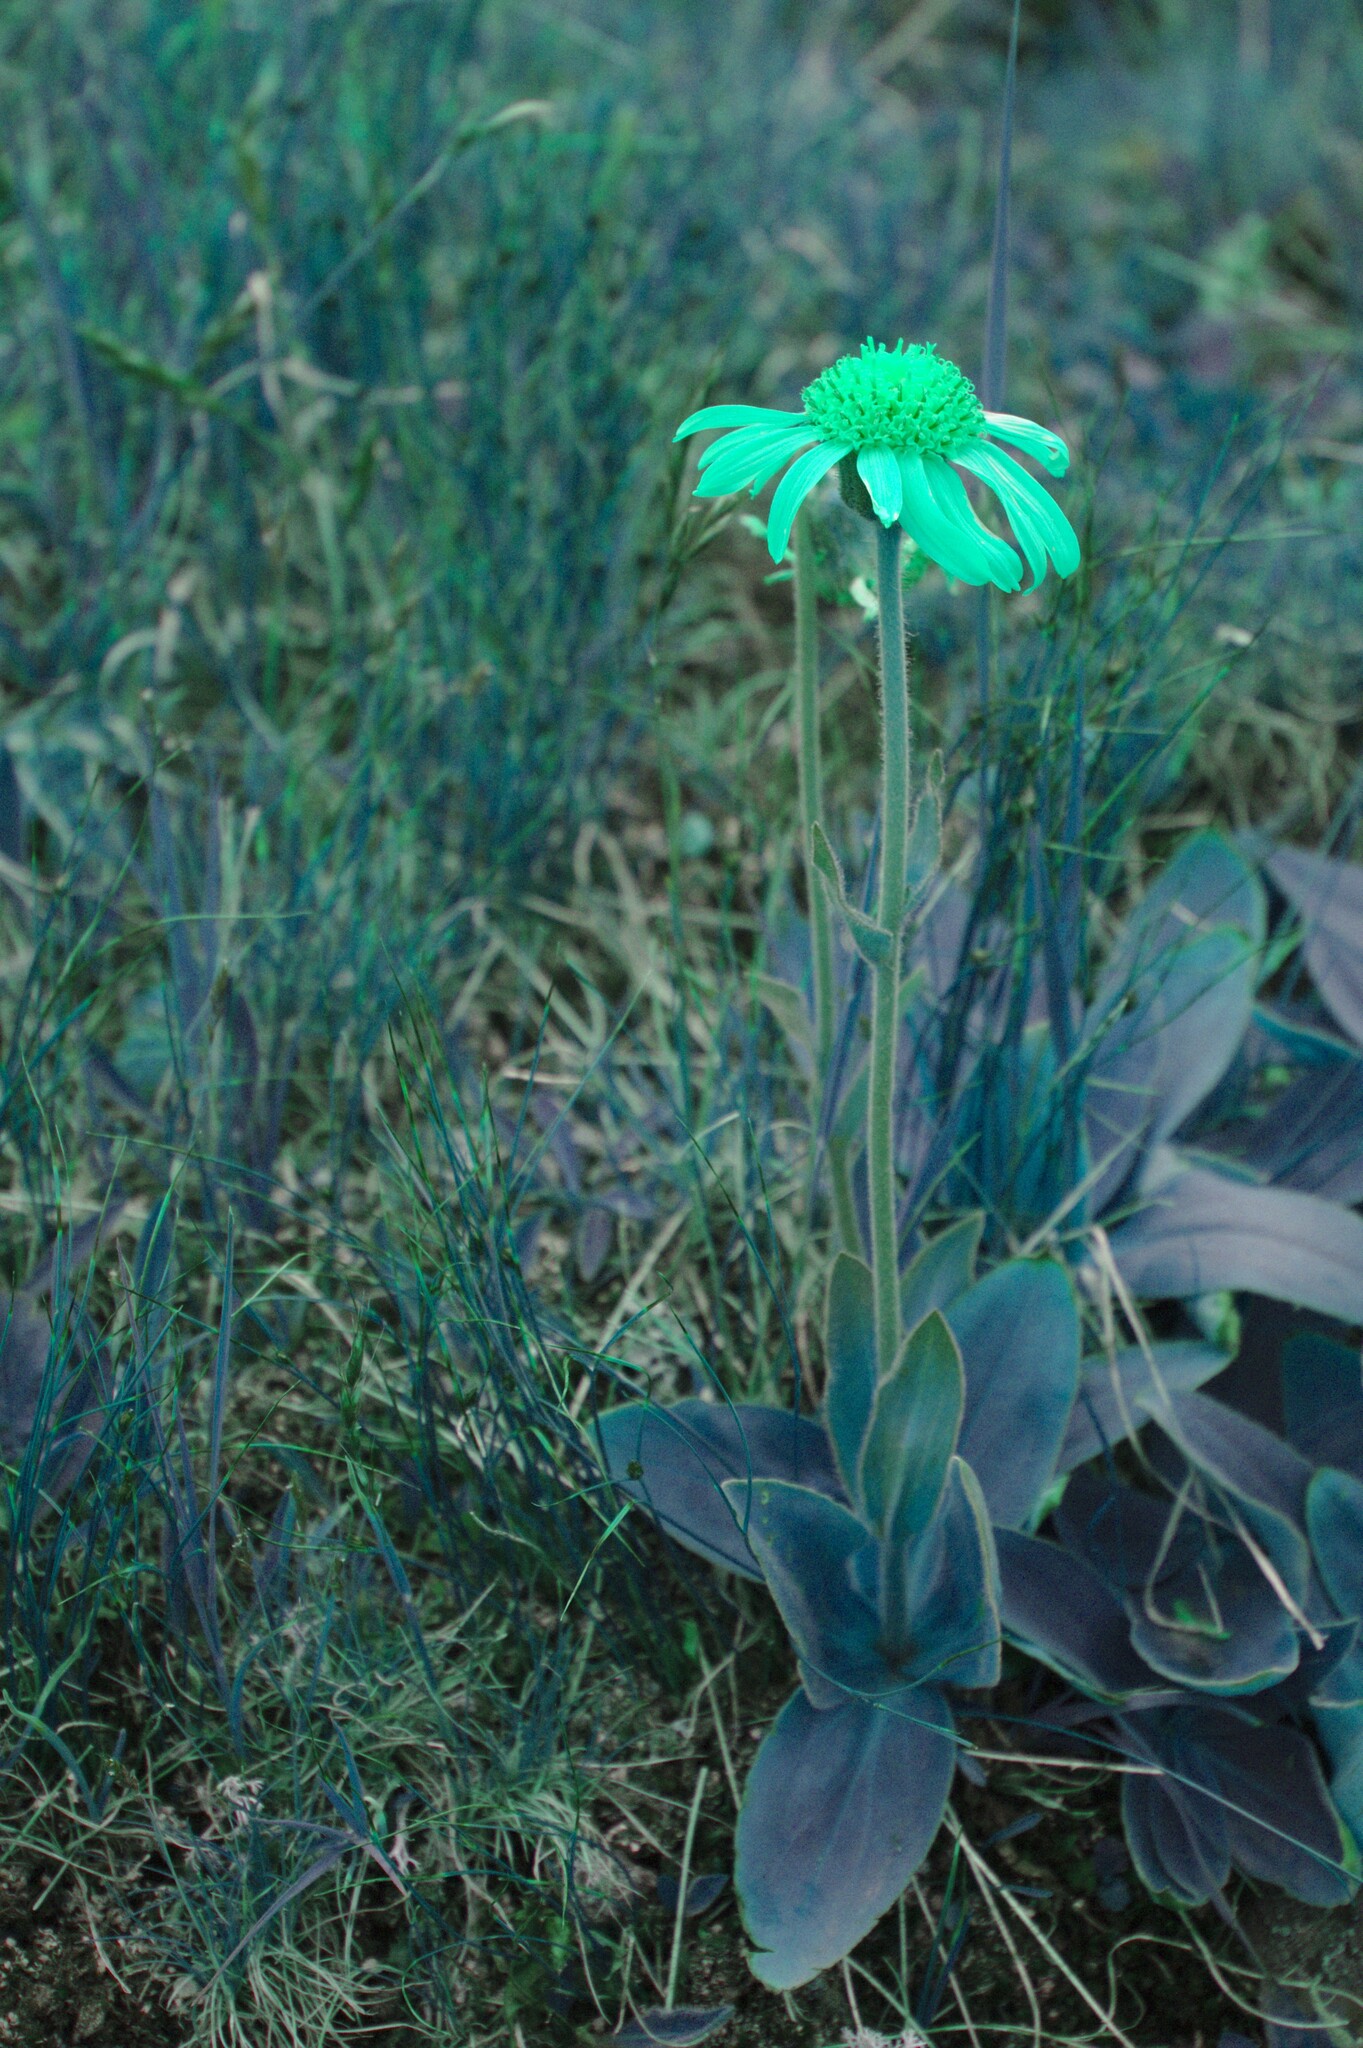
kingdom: Plantae
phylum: Tracheophyta
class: Magnoliopsida
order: Asterales
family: Asteraceae
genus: Arnica
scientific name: Arnica montana
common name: Leopard's bane
